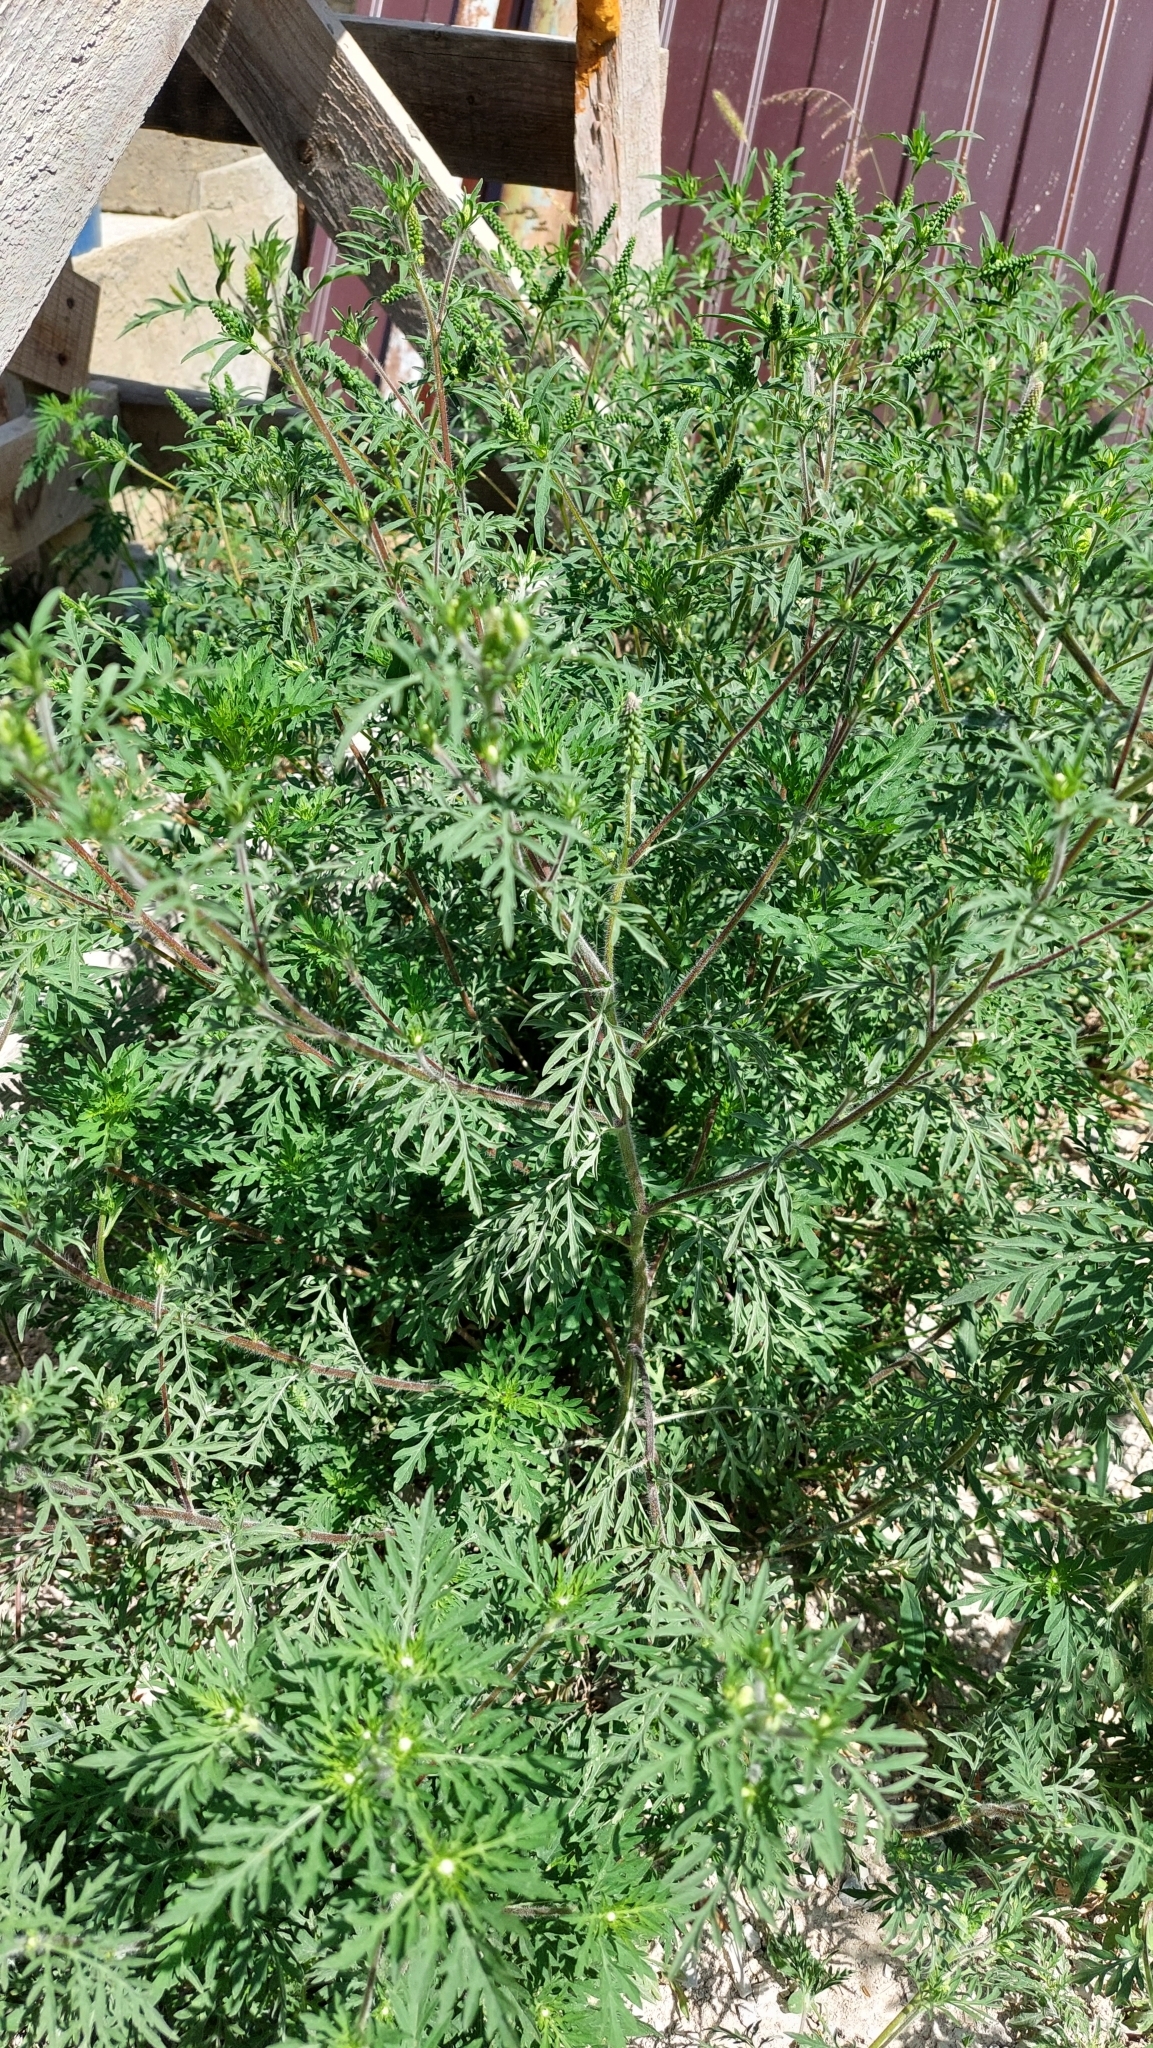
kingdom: Plantae
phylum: Tracheophyta
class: Magnoliopsida
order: Asterales
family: Asteraceae
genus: Ambrosia
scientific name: Ambrosia artemisiifolia
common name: Annual ragweed
